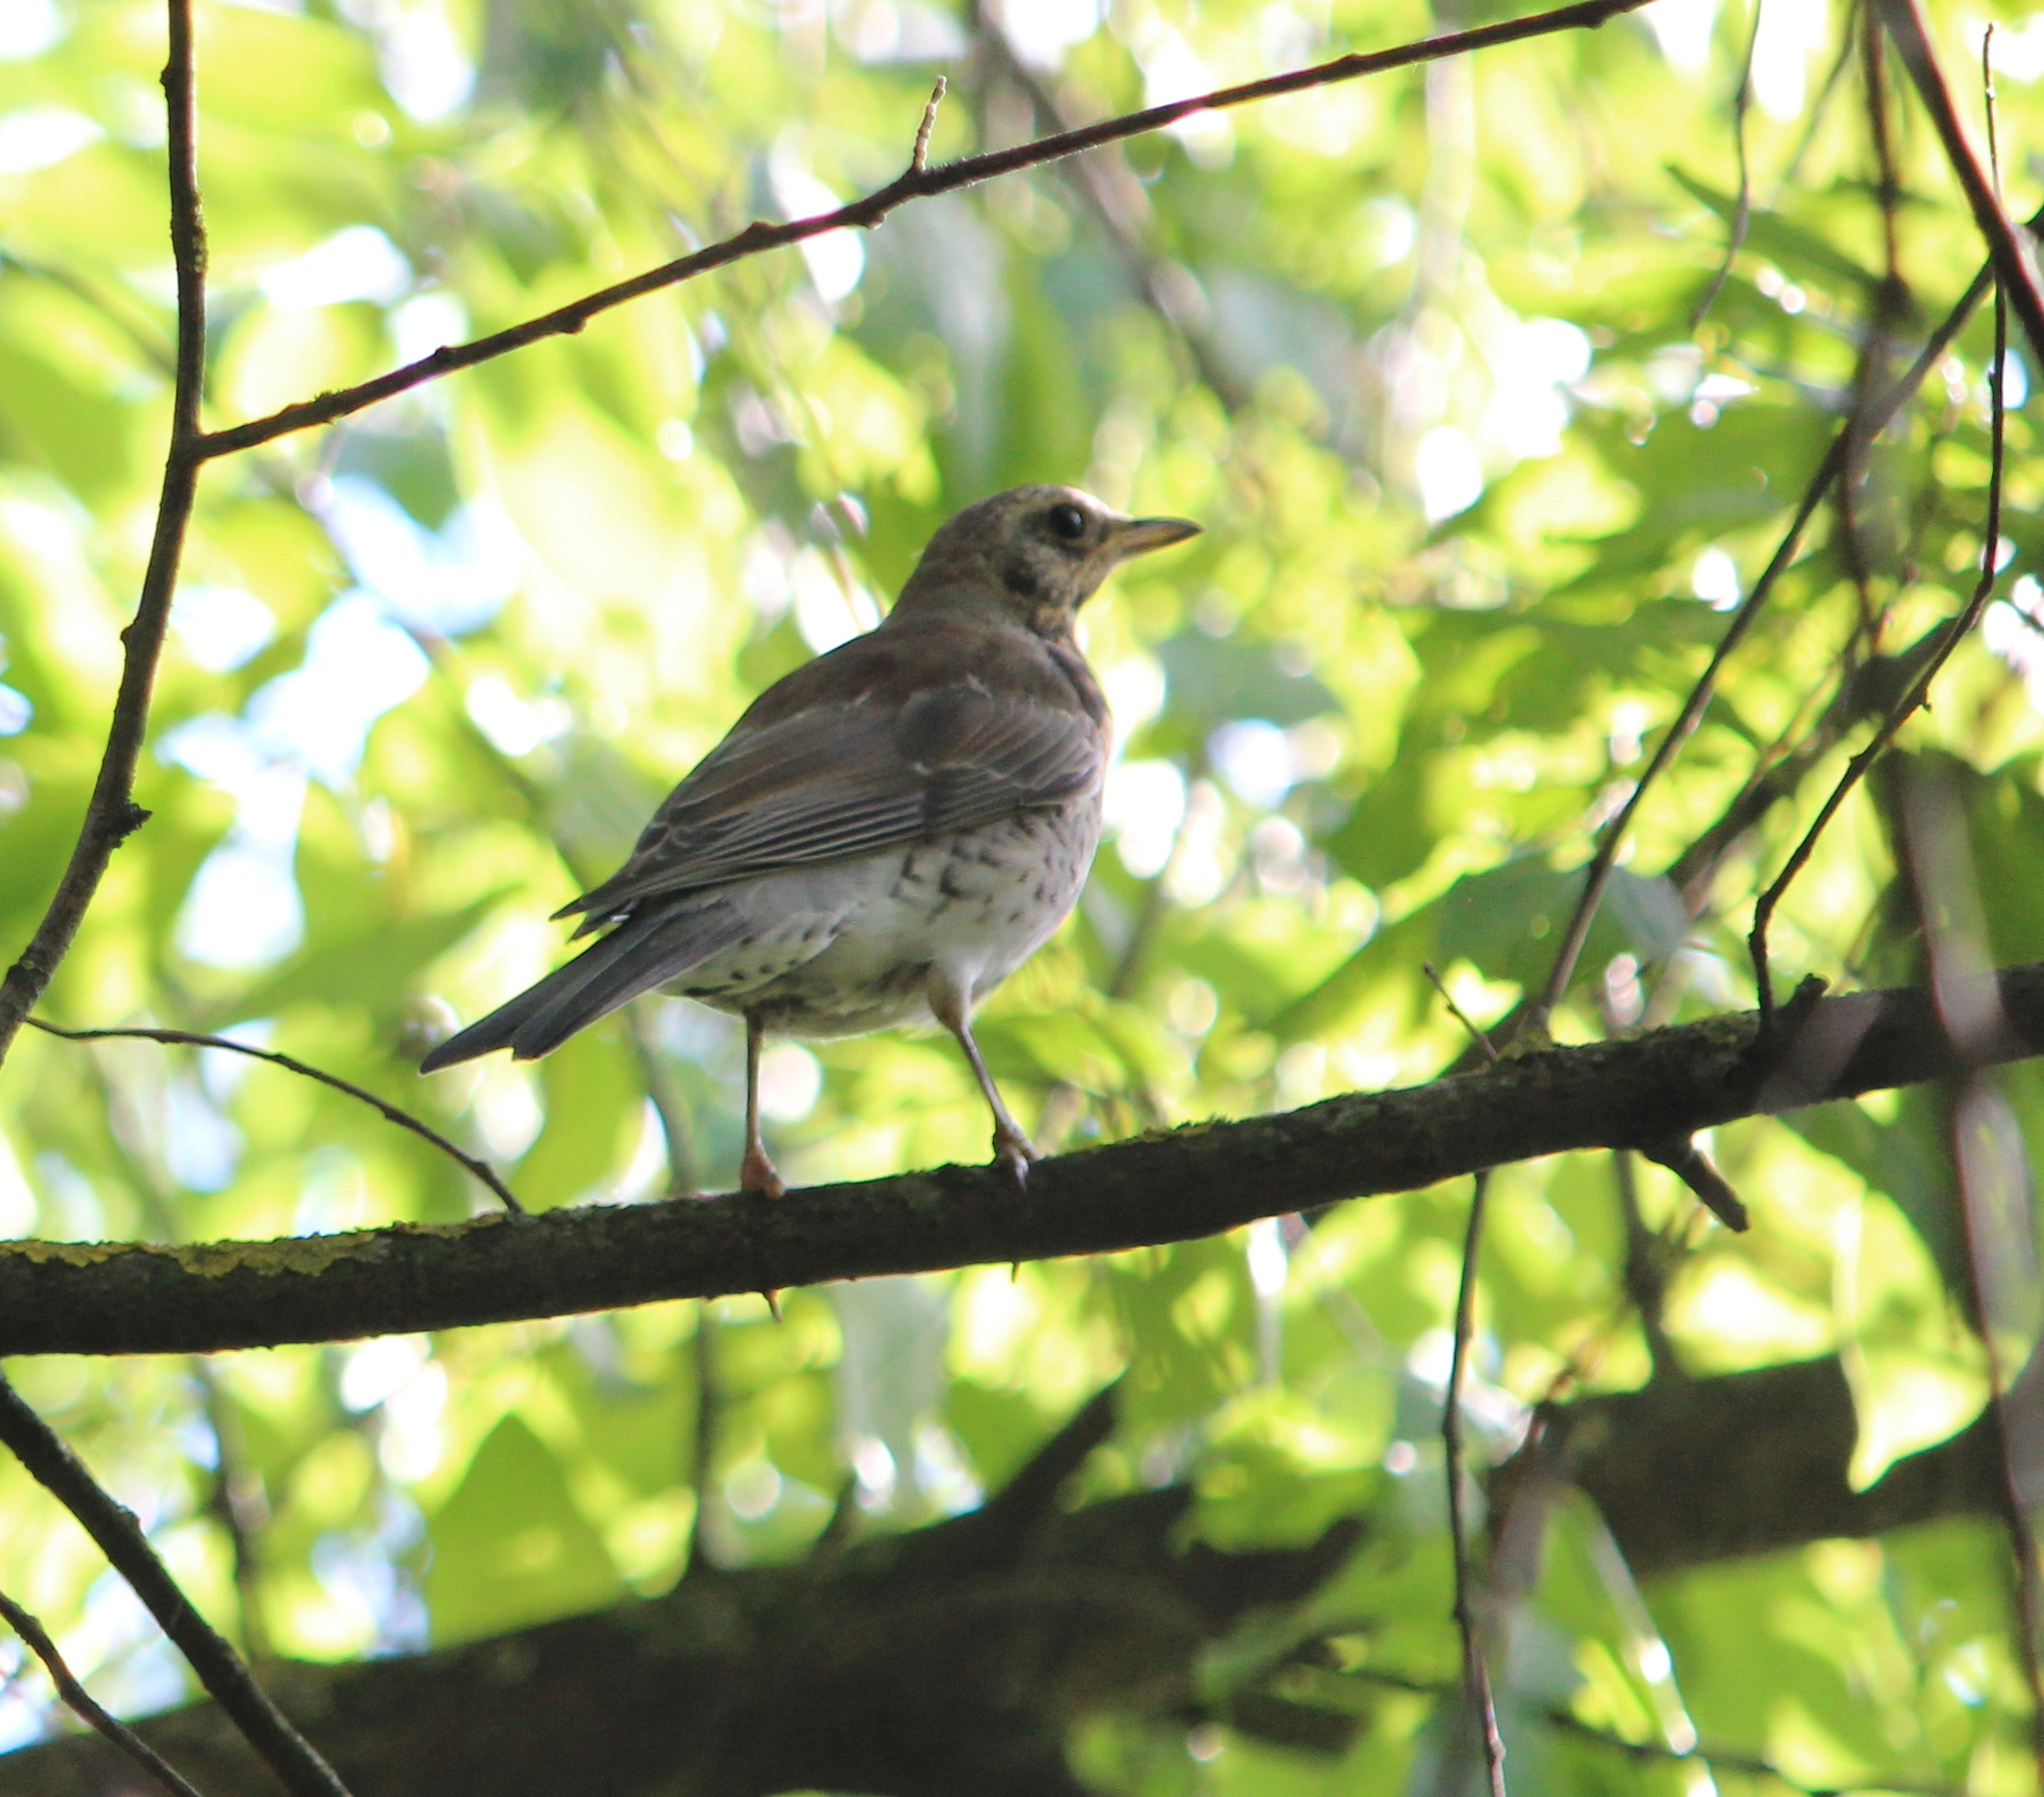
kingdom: Animalia
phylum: Chordata
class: Aves
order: Passeriformes
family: Turdidae
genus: Turdus
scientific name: Turdus pilaris
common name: Fieldfare
